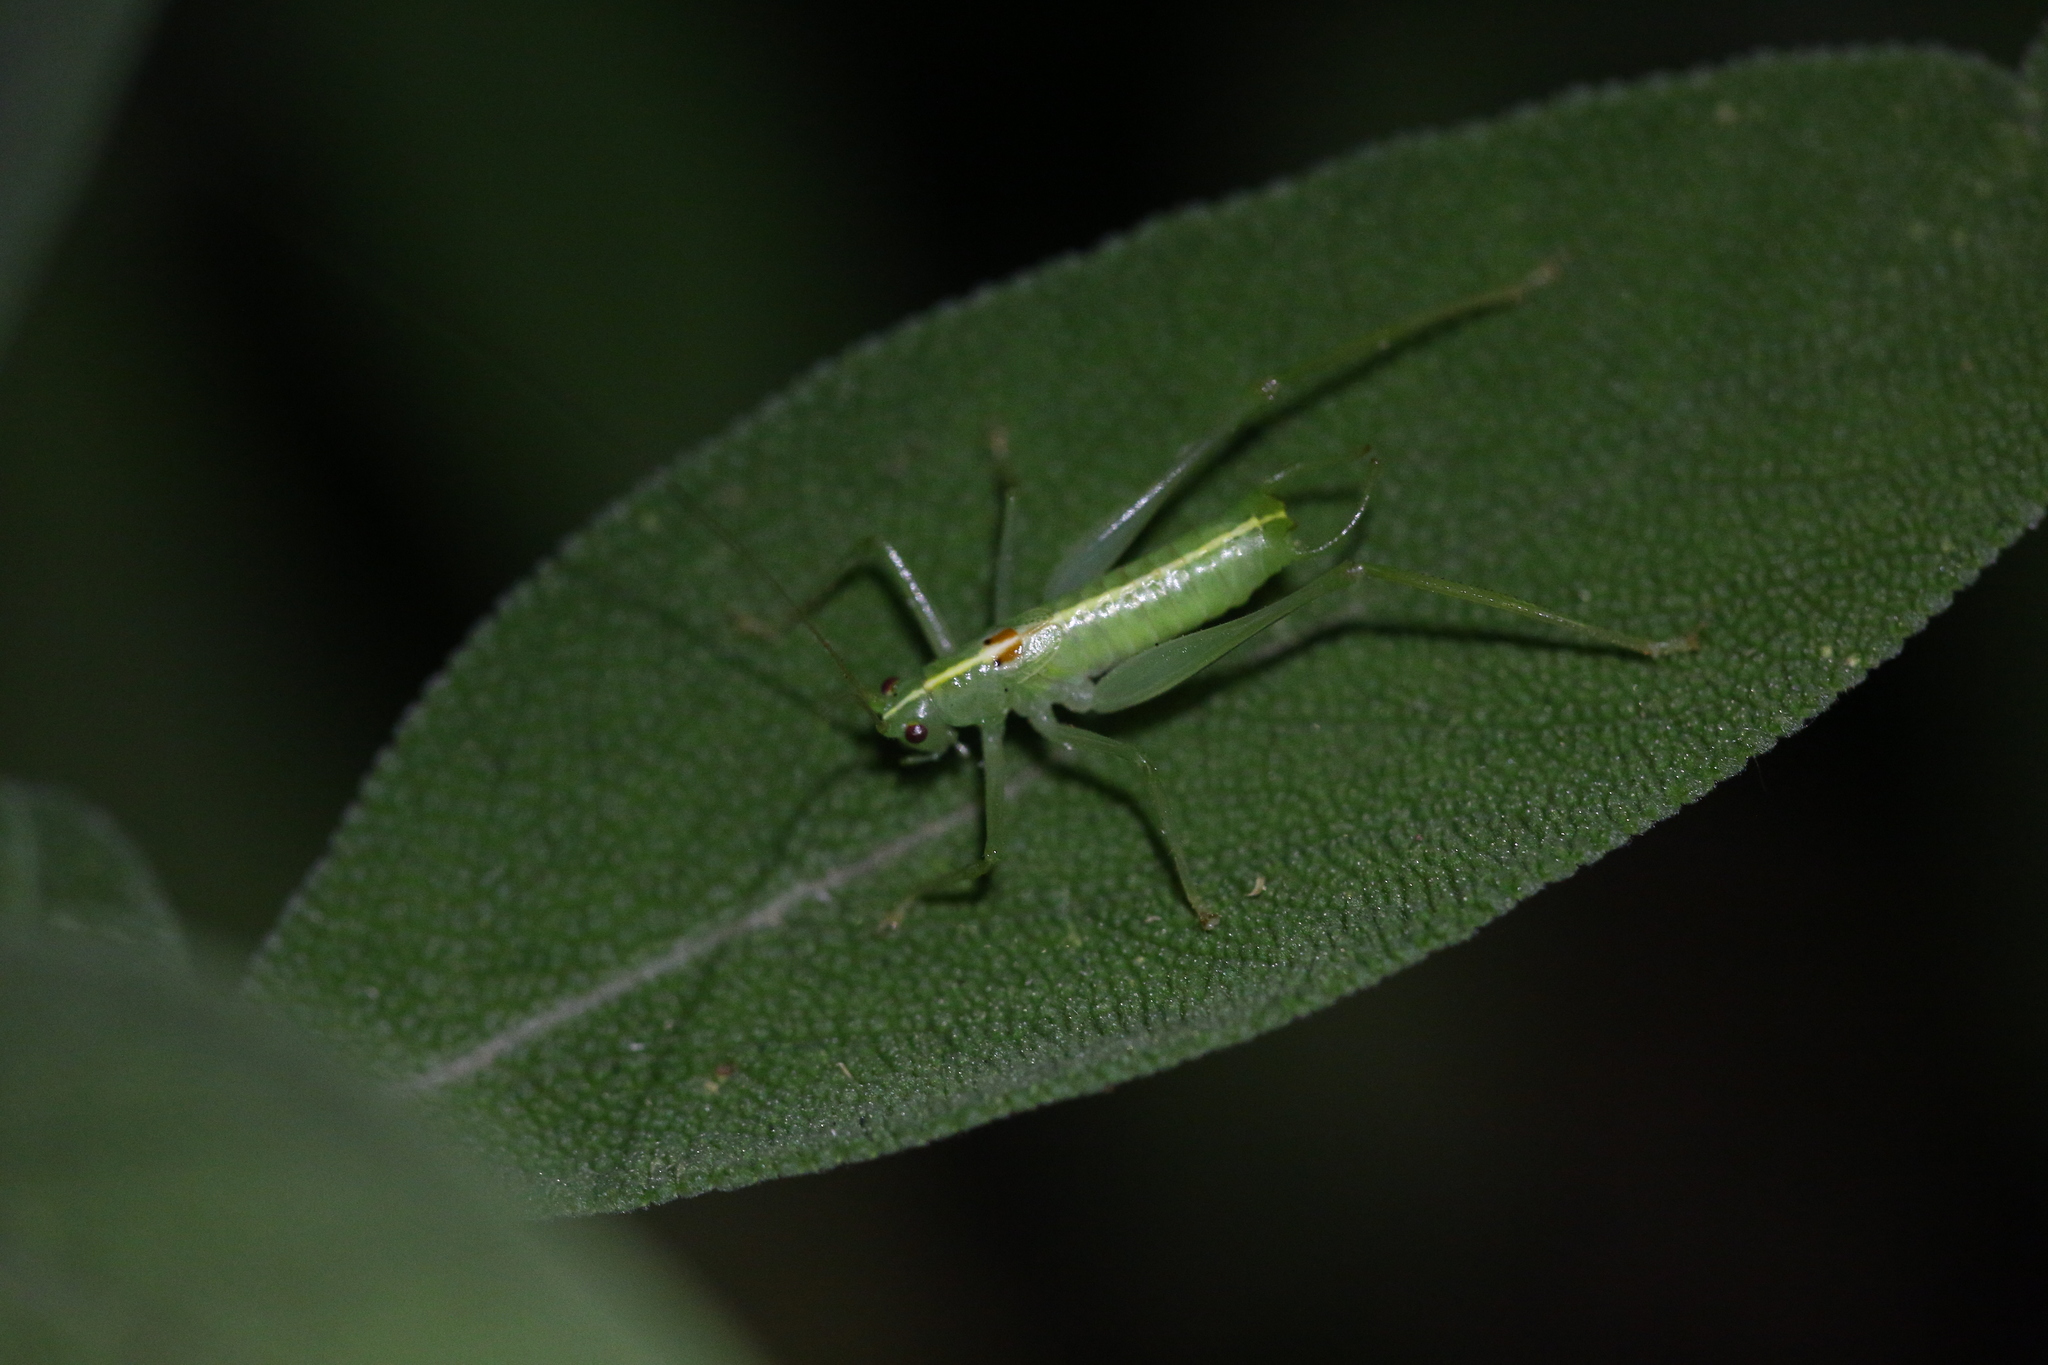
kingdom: Animalia
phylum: Arthropoda
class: Insecta
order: Orthoptera
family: Tettigoniidae
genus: Meconema
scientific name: Meconema meridionale
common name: Southern oak bush-cricket
